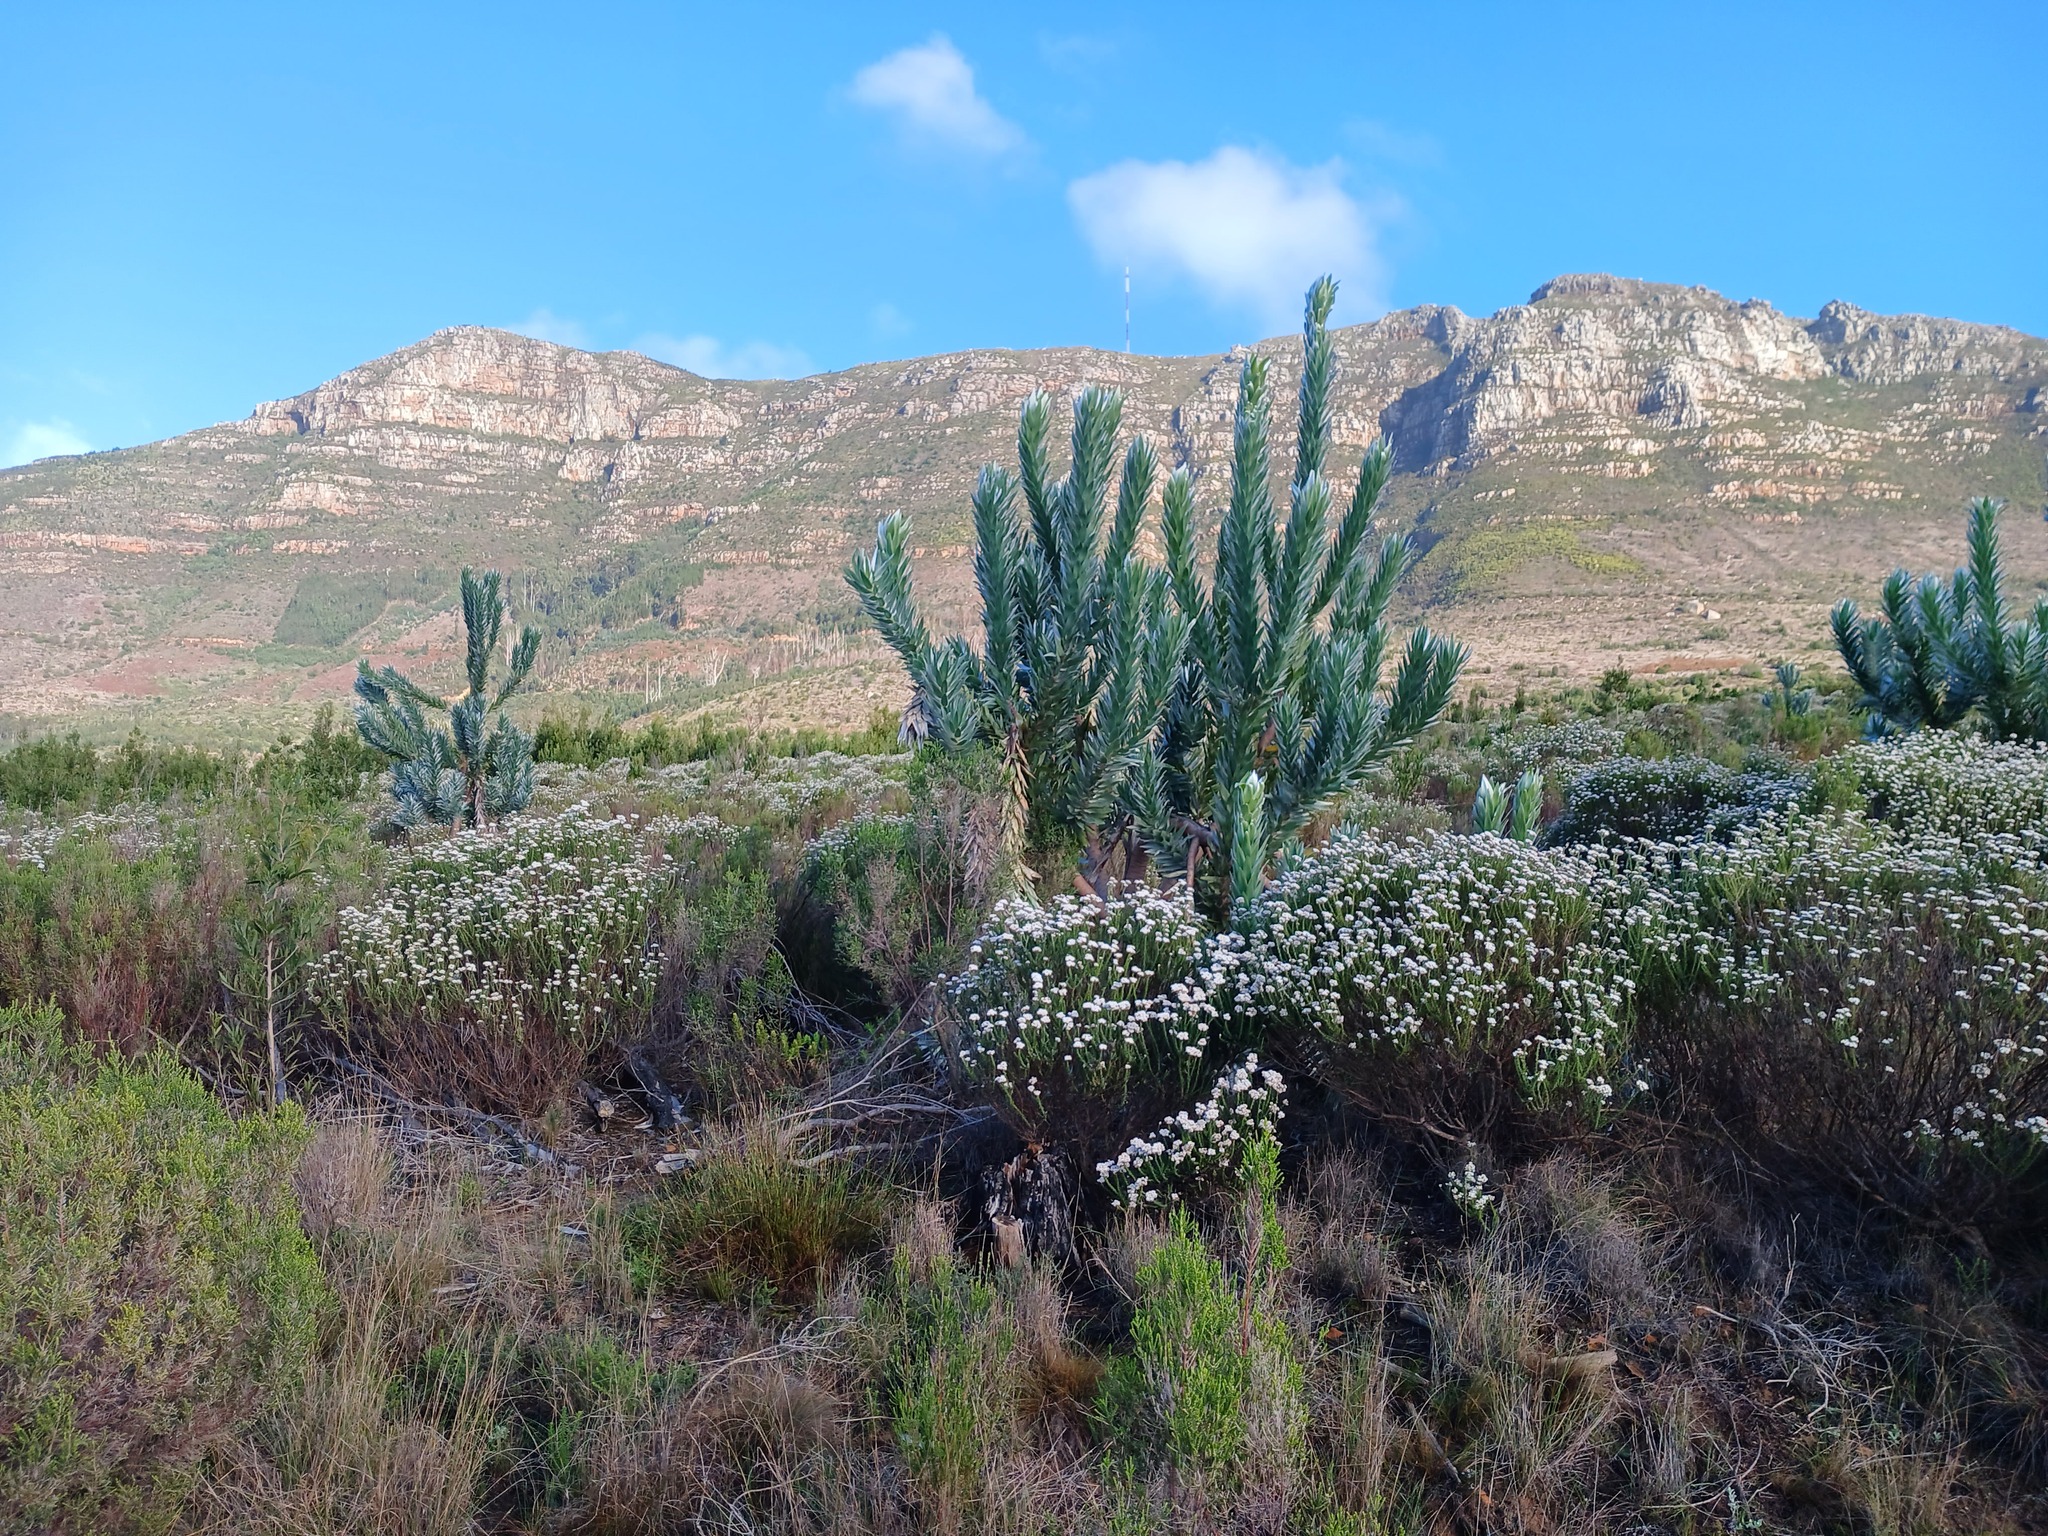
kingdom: Plantae
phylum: Tracheophyta
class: Magnoliopsida
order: Proteales
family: Proteaceae
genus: Leucadendron
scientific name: Leucadendron argenteum
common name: Cape silver tree
